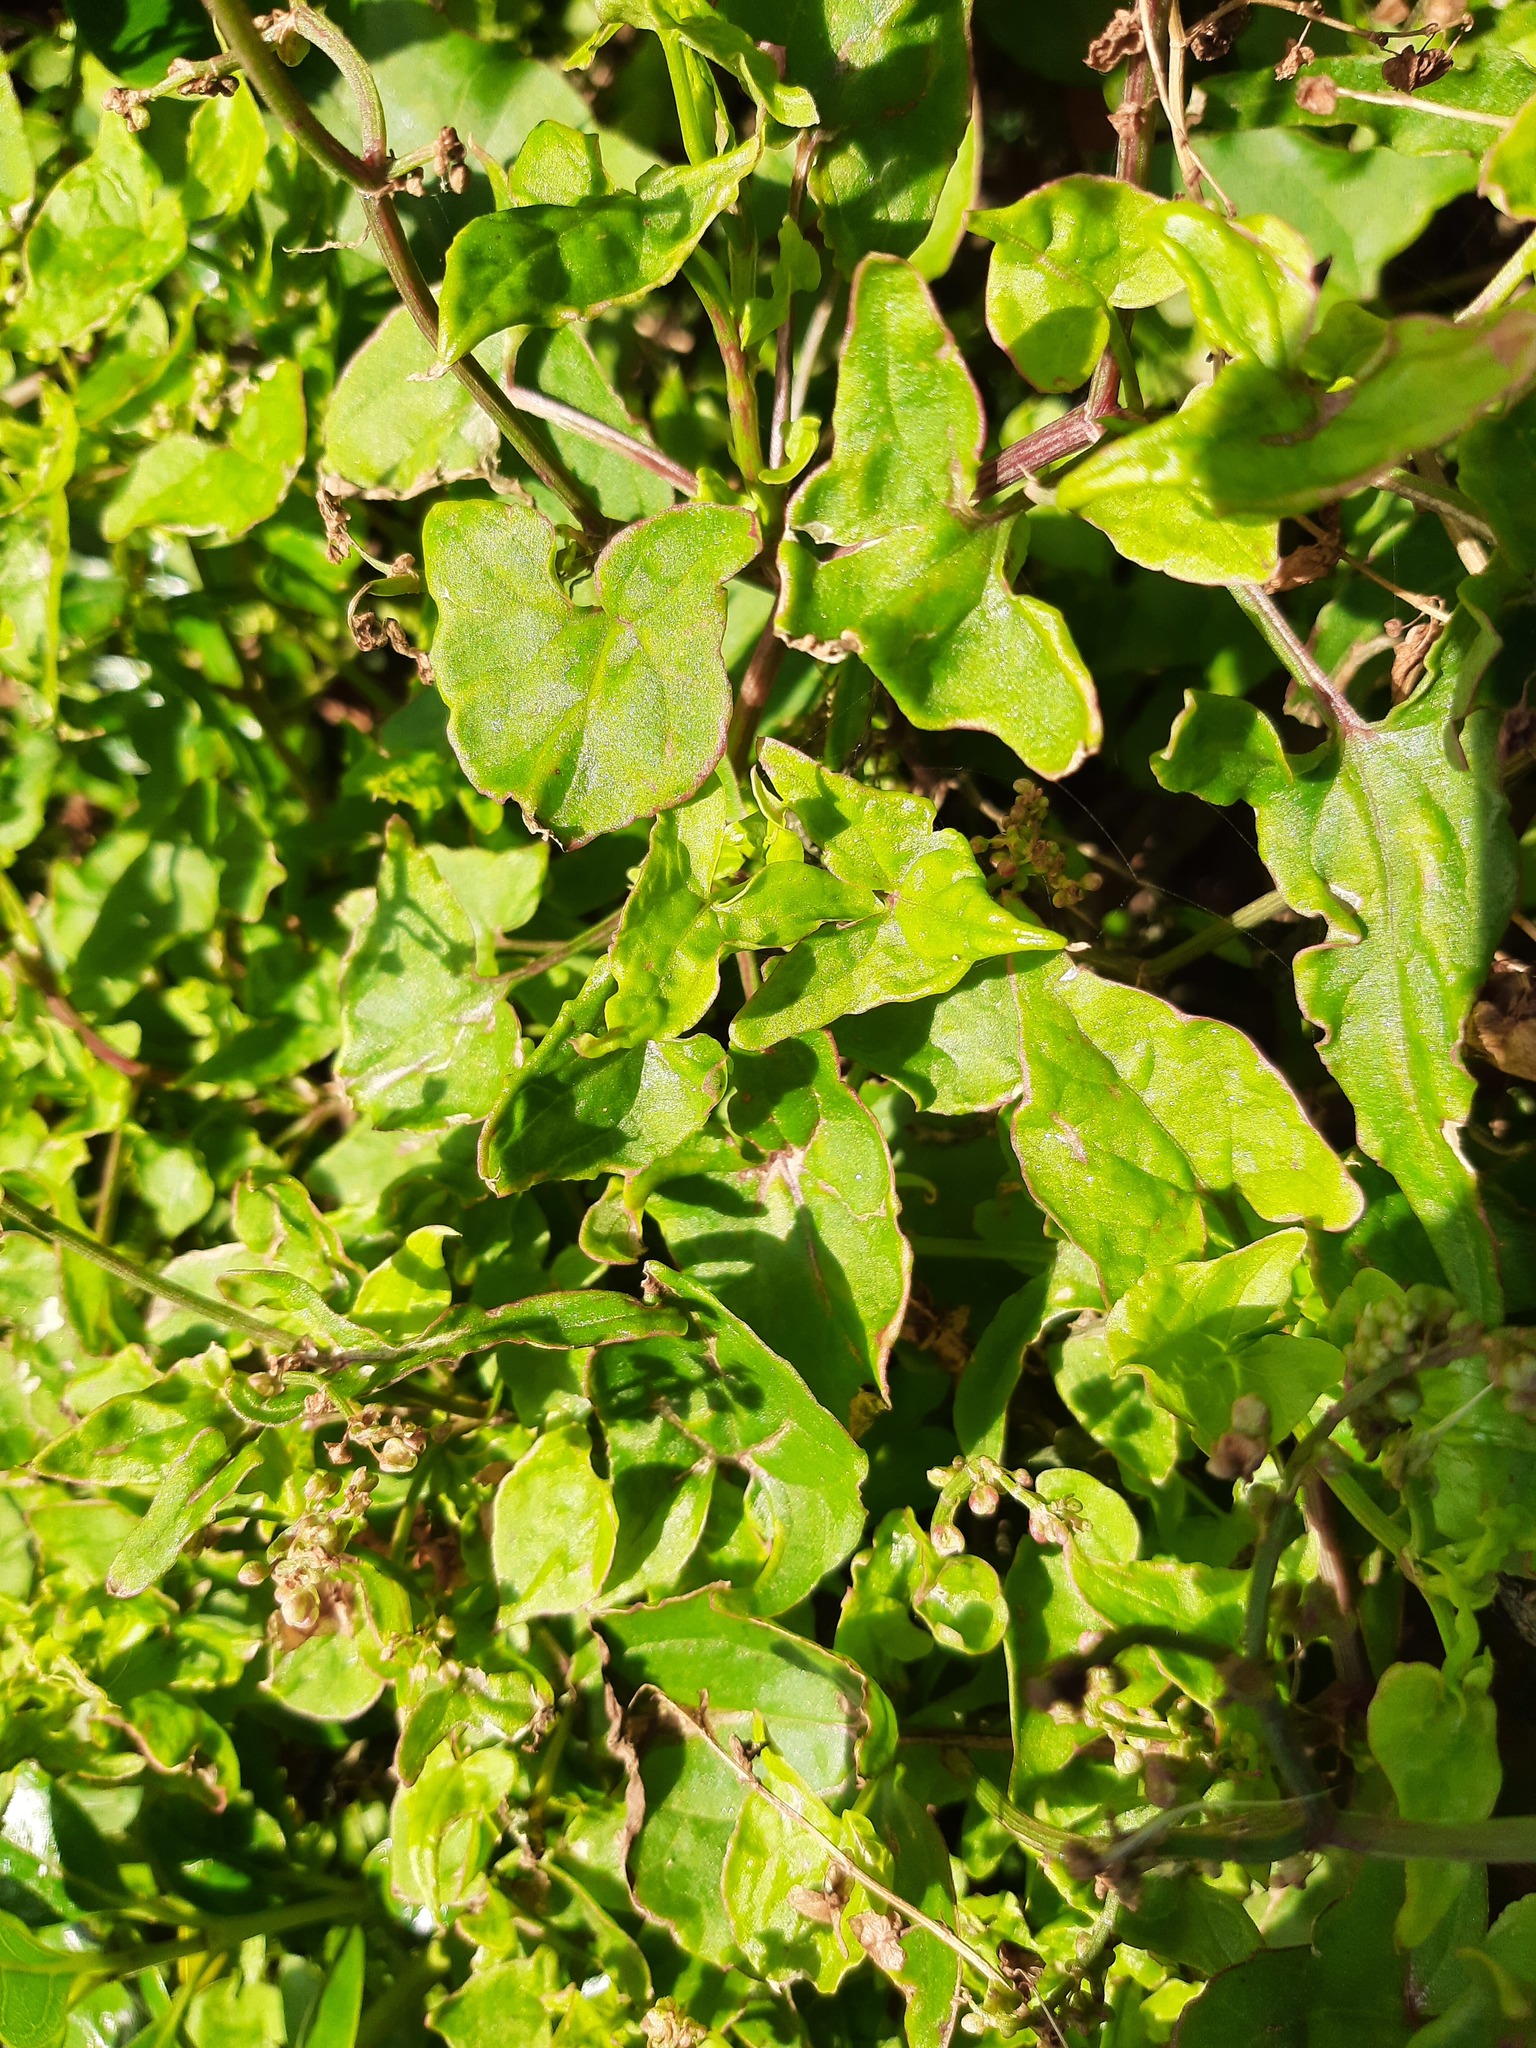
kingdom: Plantae
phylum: Tracheophyta
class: Magnoliopsida
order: Caryophyllales
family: Polygonaceae
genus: Muehlenbeckia
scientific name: Muehlenbeckia australis
